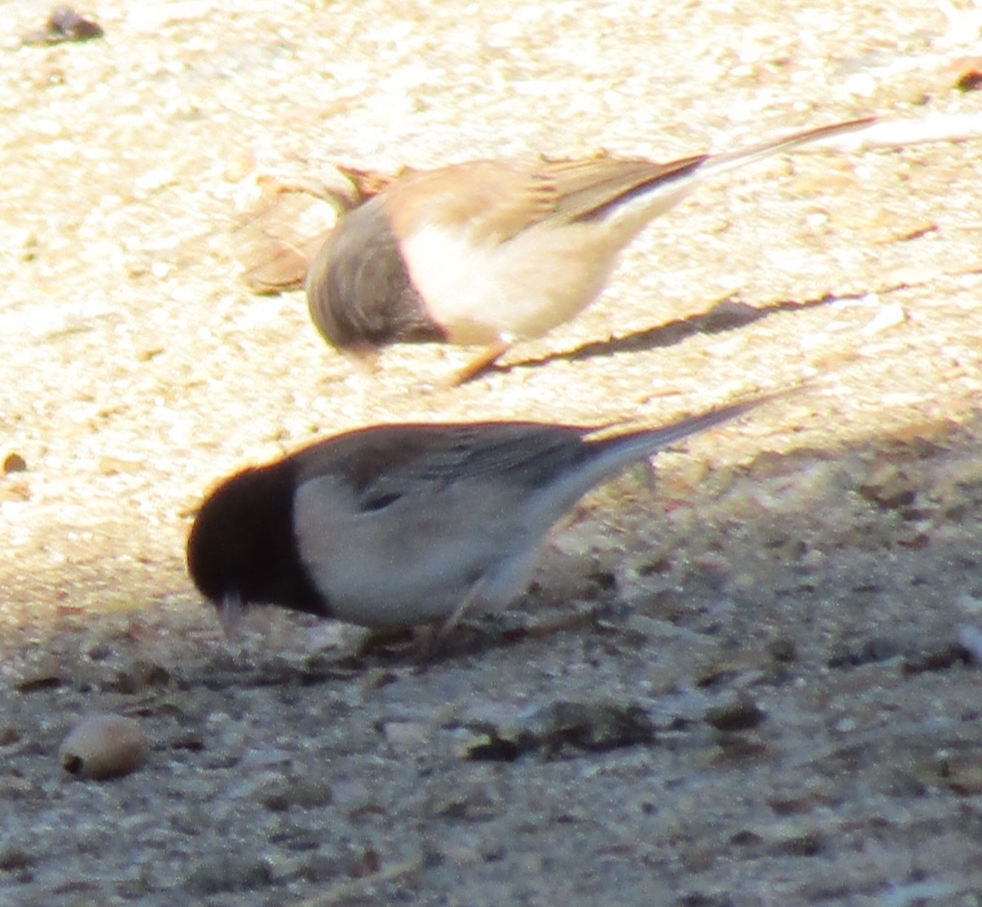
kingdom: Animalia
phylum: Chordata
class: Aves
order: Passeriformes
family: Passerellidae
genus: Junco
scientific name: Junco hyemalis
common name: Dark-eyed junco
